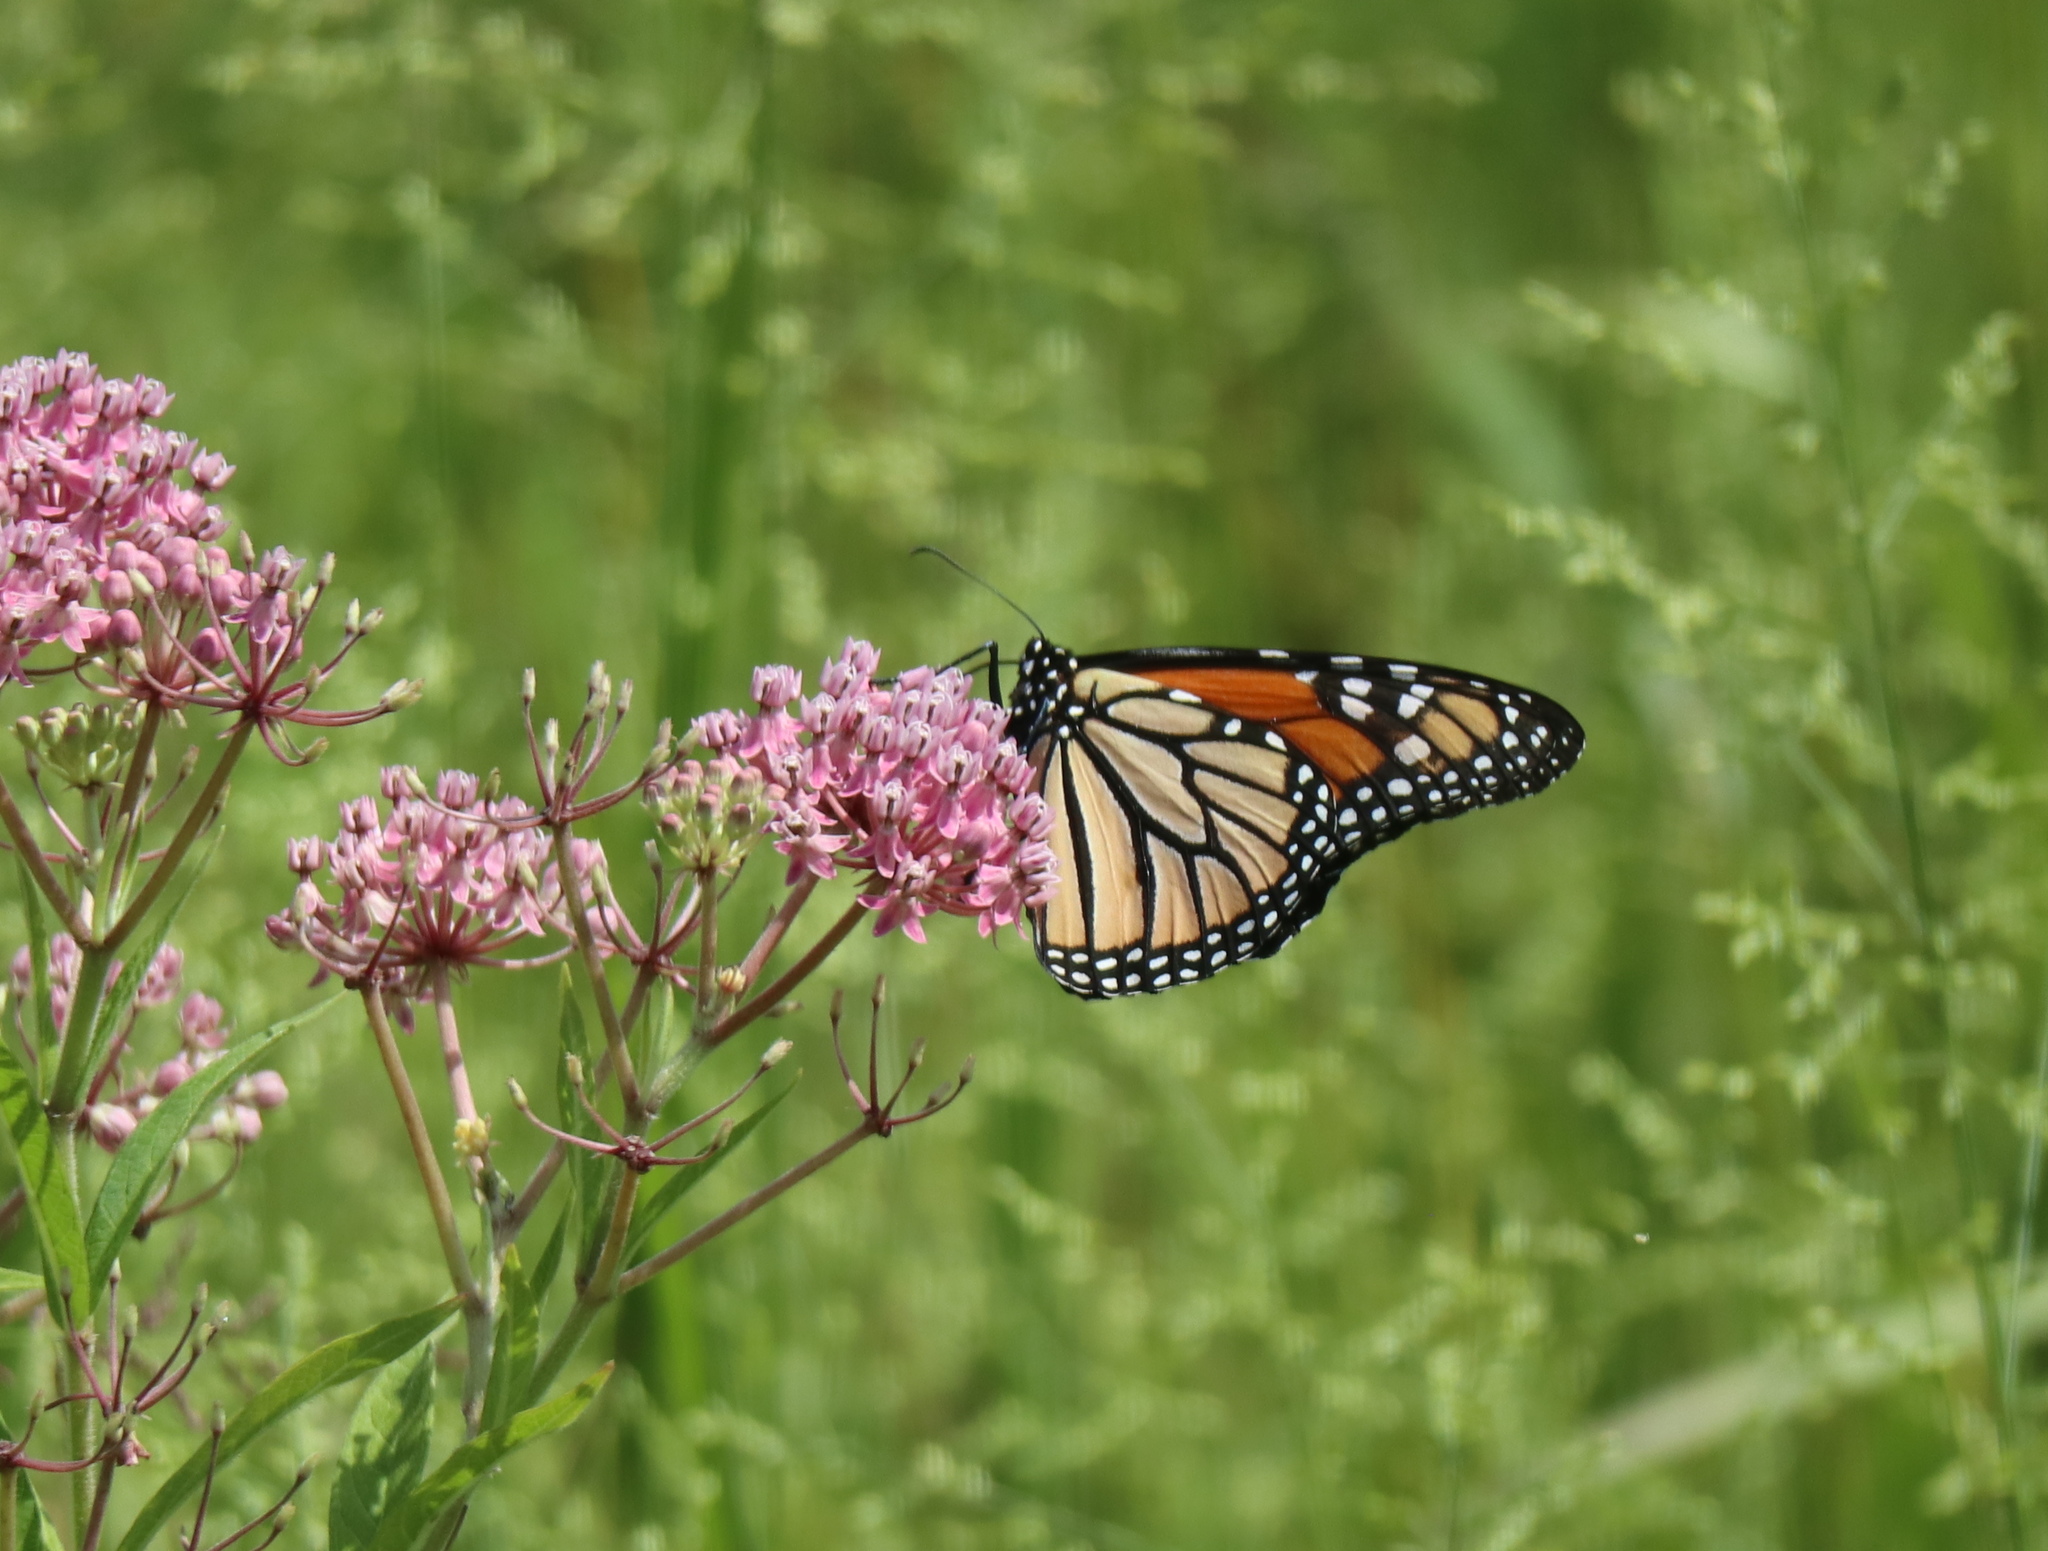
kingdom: Animalia
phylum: Arthropoda
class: Insecta
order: Lepidoptera
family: Nymphalidae
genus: Danaus
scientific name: Danaus plexippus
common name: Monarch
